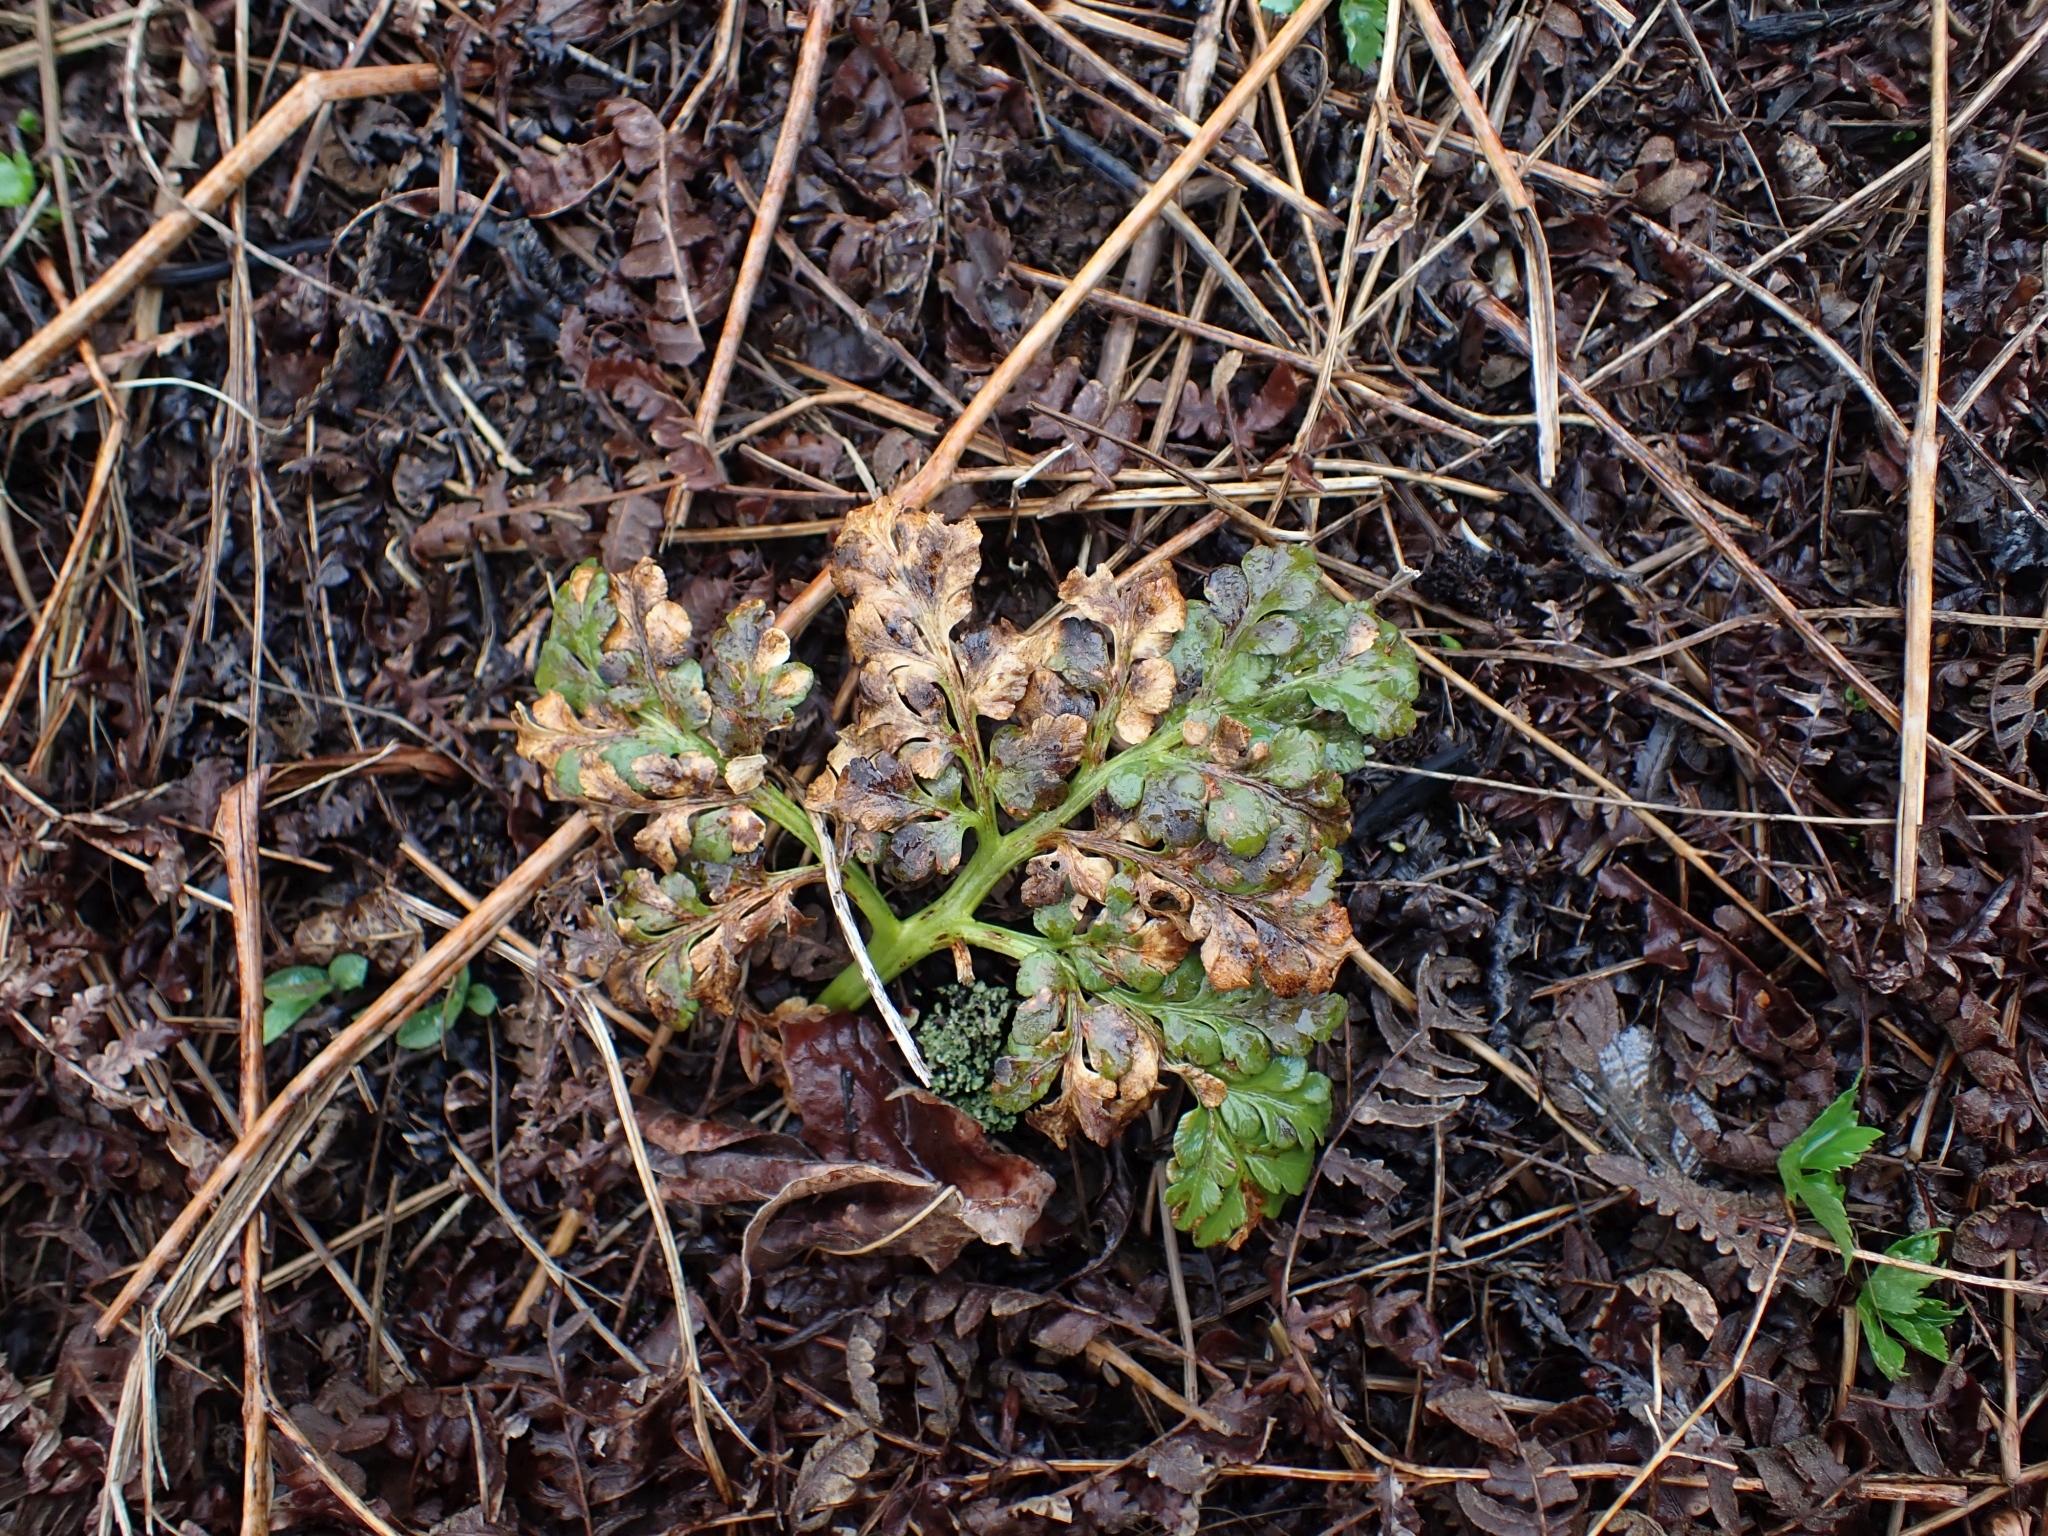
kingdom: Plantae
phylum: Tracheophyta
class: Polypodiopsida
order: Ophioglossales
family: Ophioglossaceae
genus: Sceptridium
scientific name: Sceptridium multifidum
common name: Leathery grape fern
